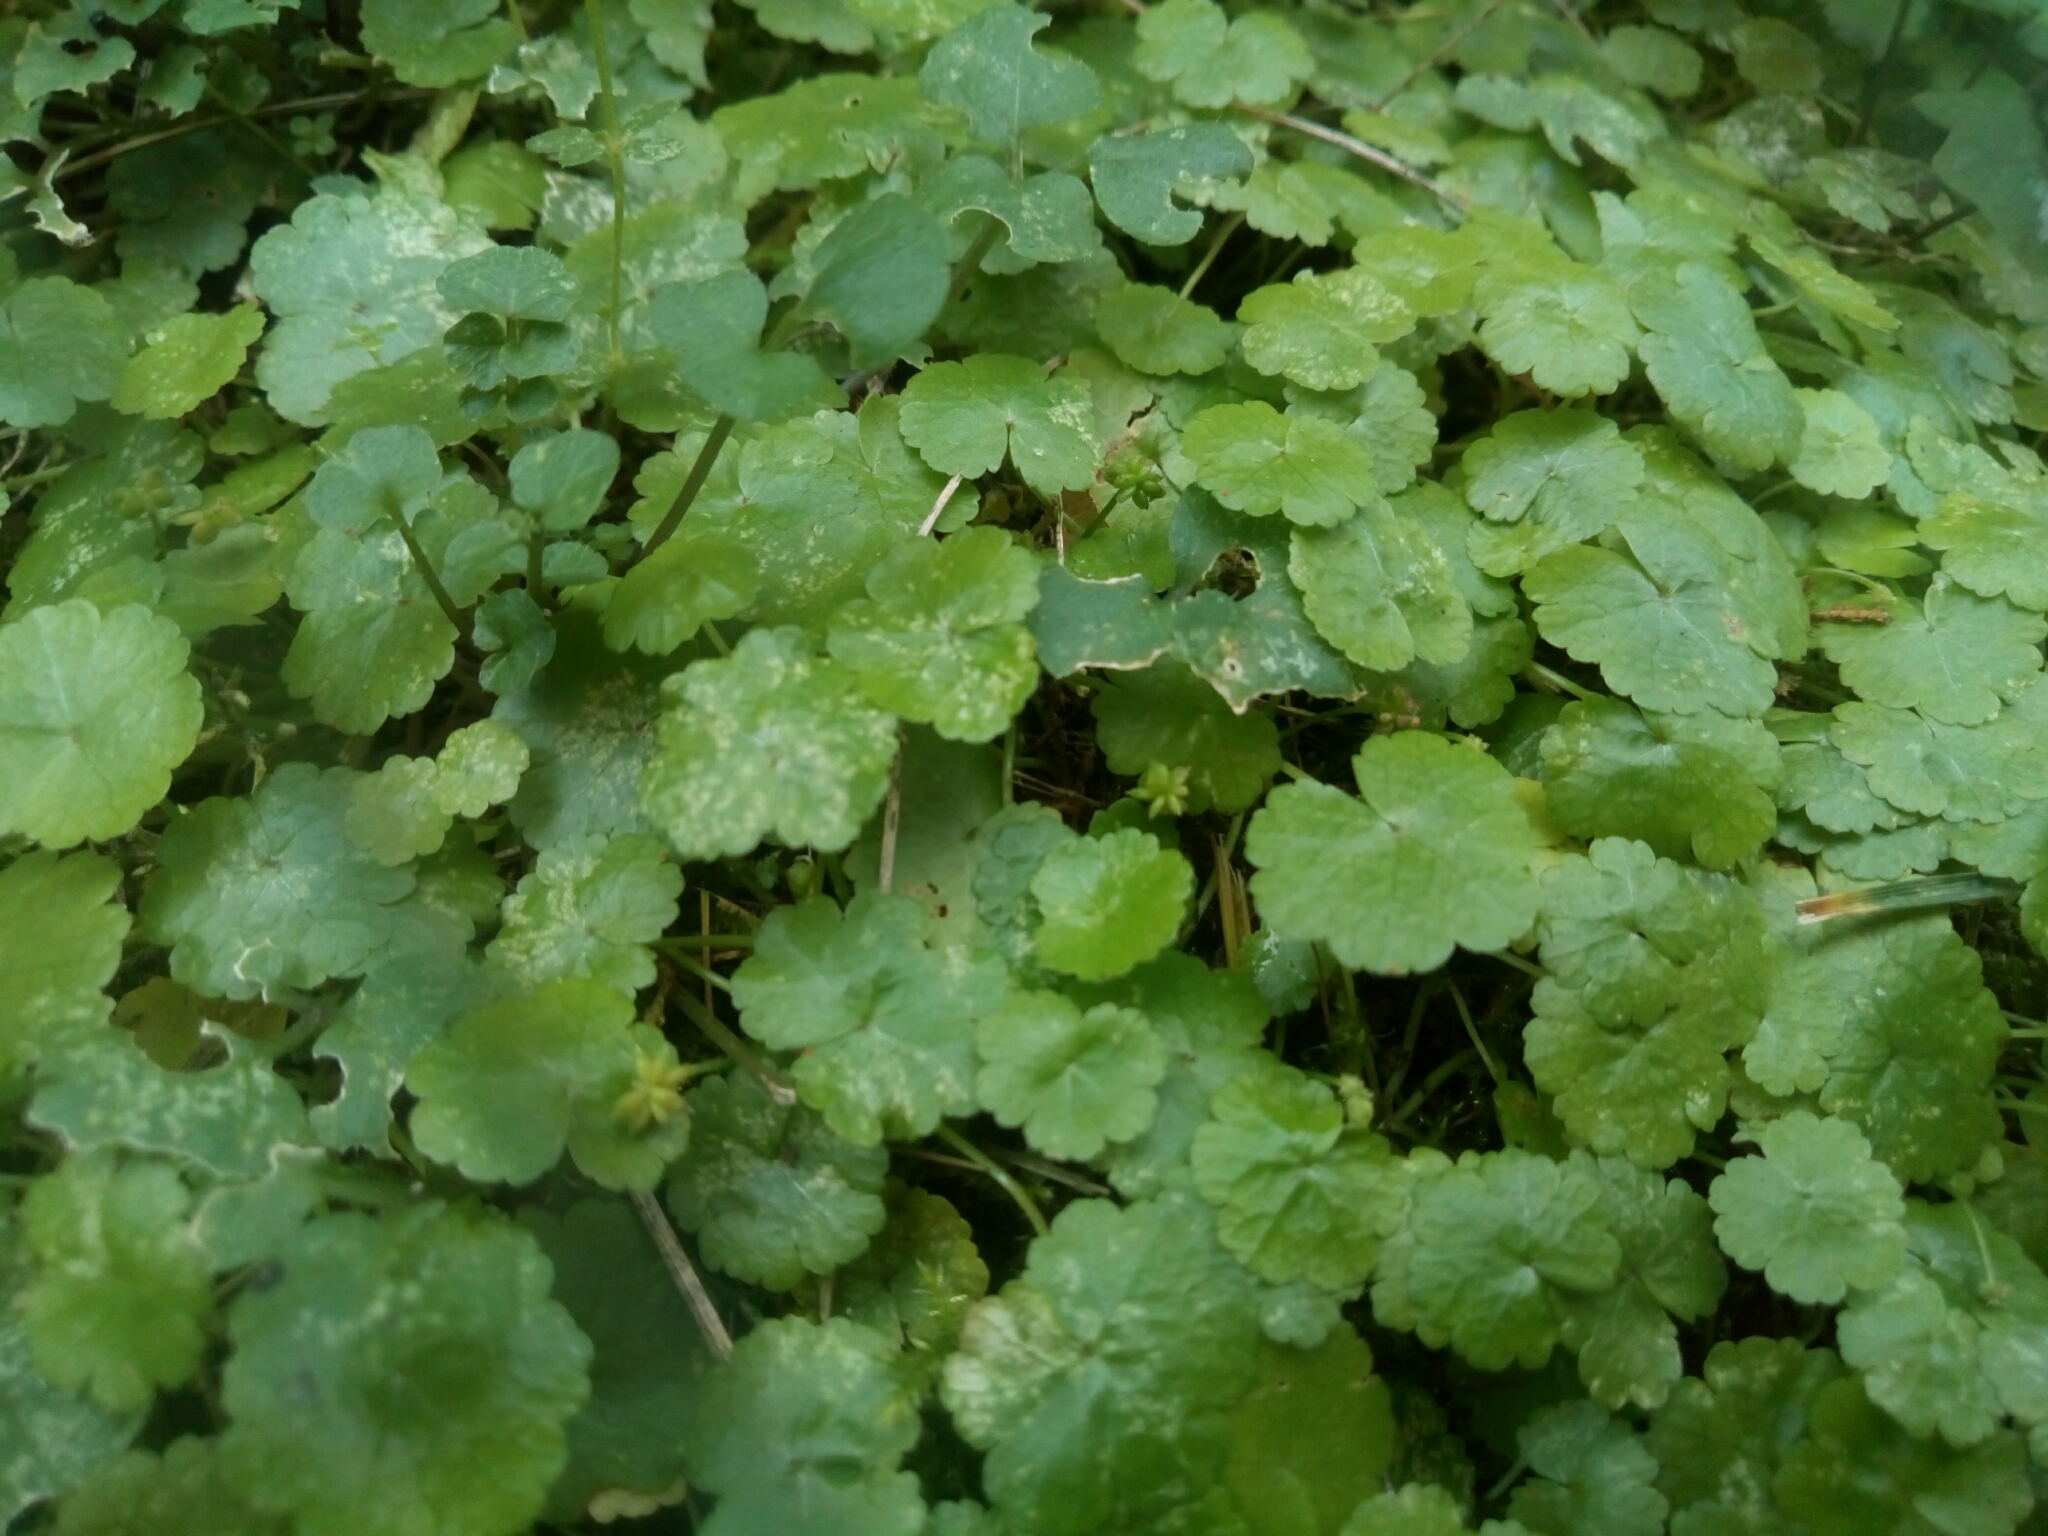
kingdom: Plantae
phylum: Tracheophyta
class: Magnoliopsida
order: Apiales
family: Araliaceae
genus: Hydrocotyle
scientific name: Hydrocotyle sibthorpioides
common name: Lawn marshpennywort
